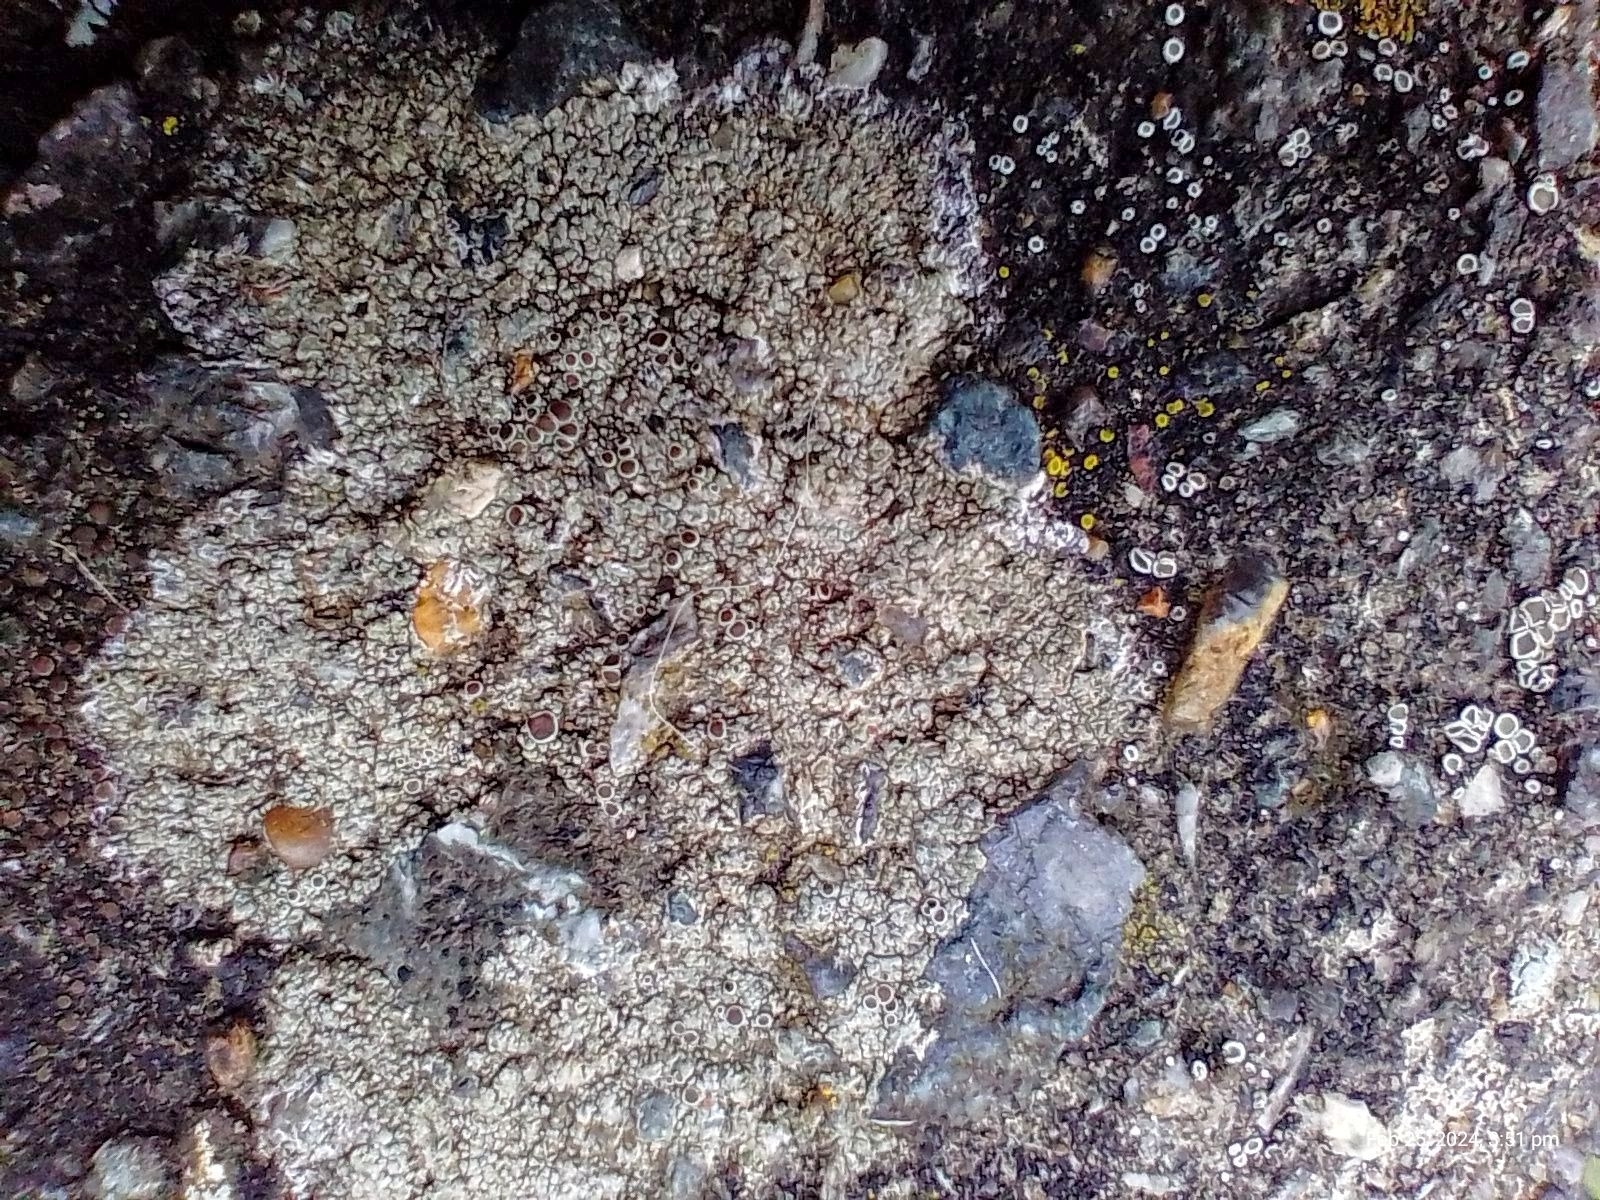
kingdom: Fungi
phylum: Ascomycota
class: Lecanoromycetes
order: Lecanorales
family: Lecanoraceae
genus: Lecanora
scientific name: Lecanora campestris
